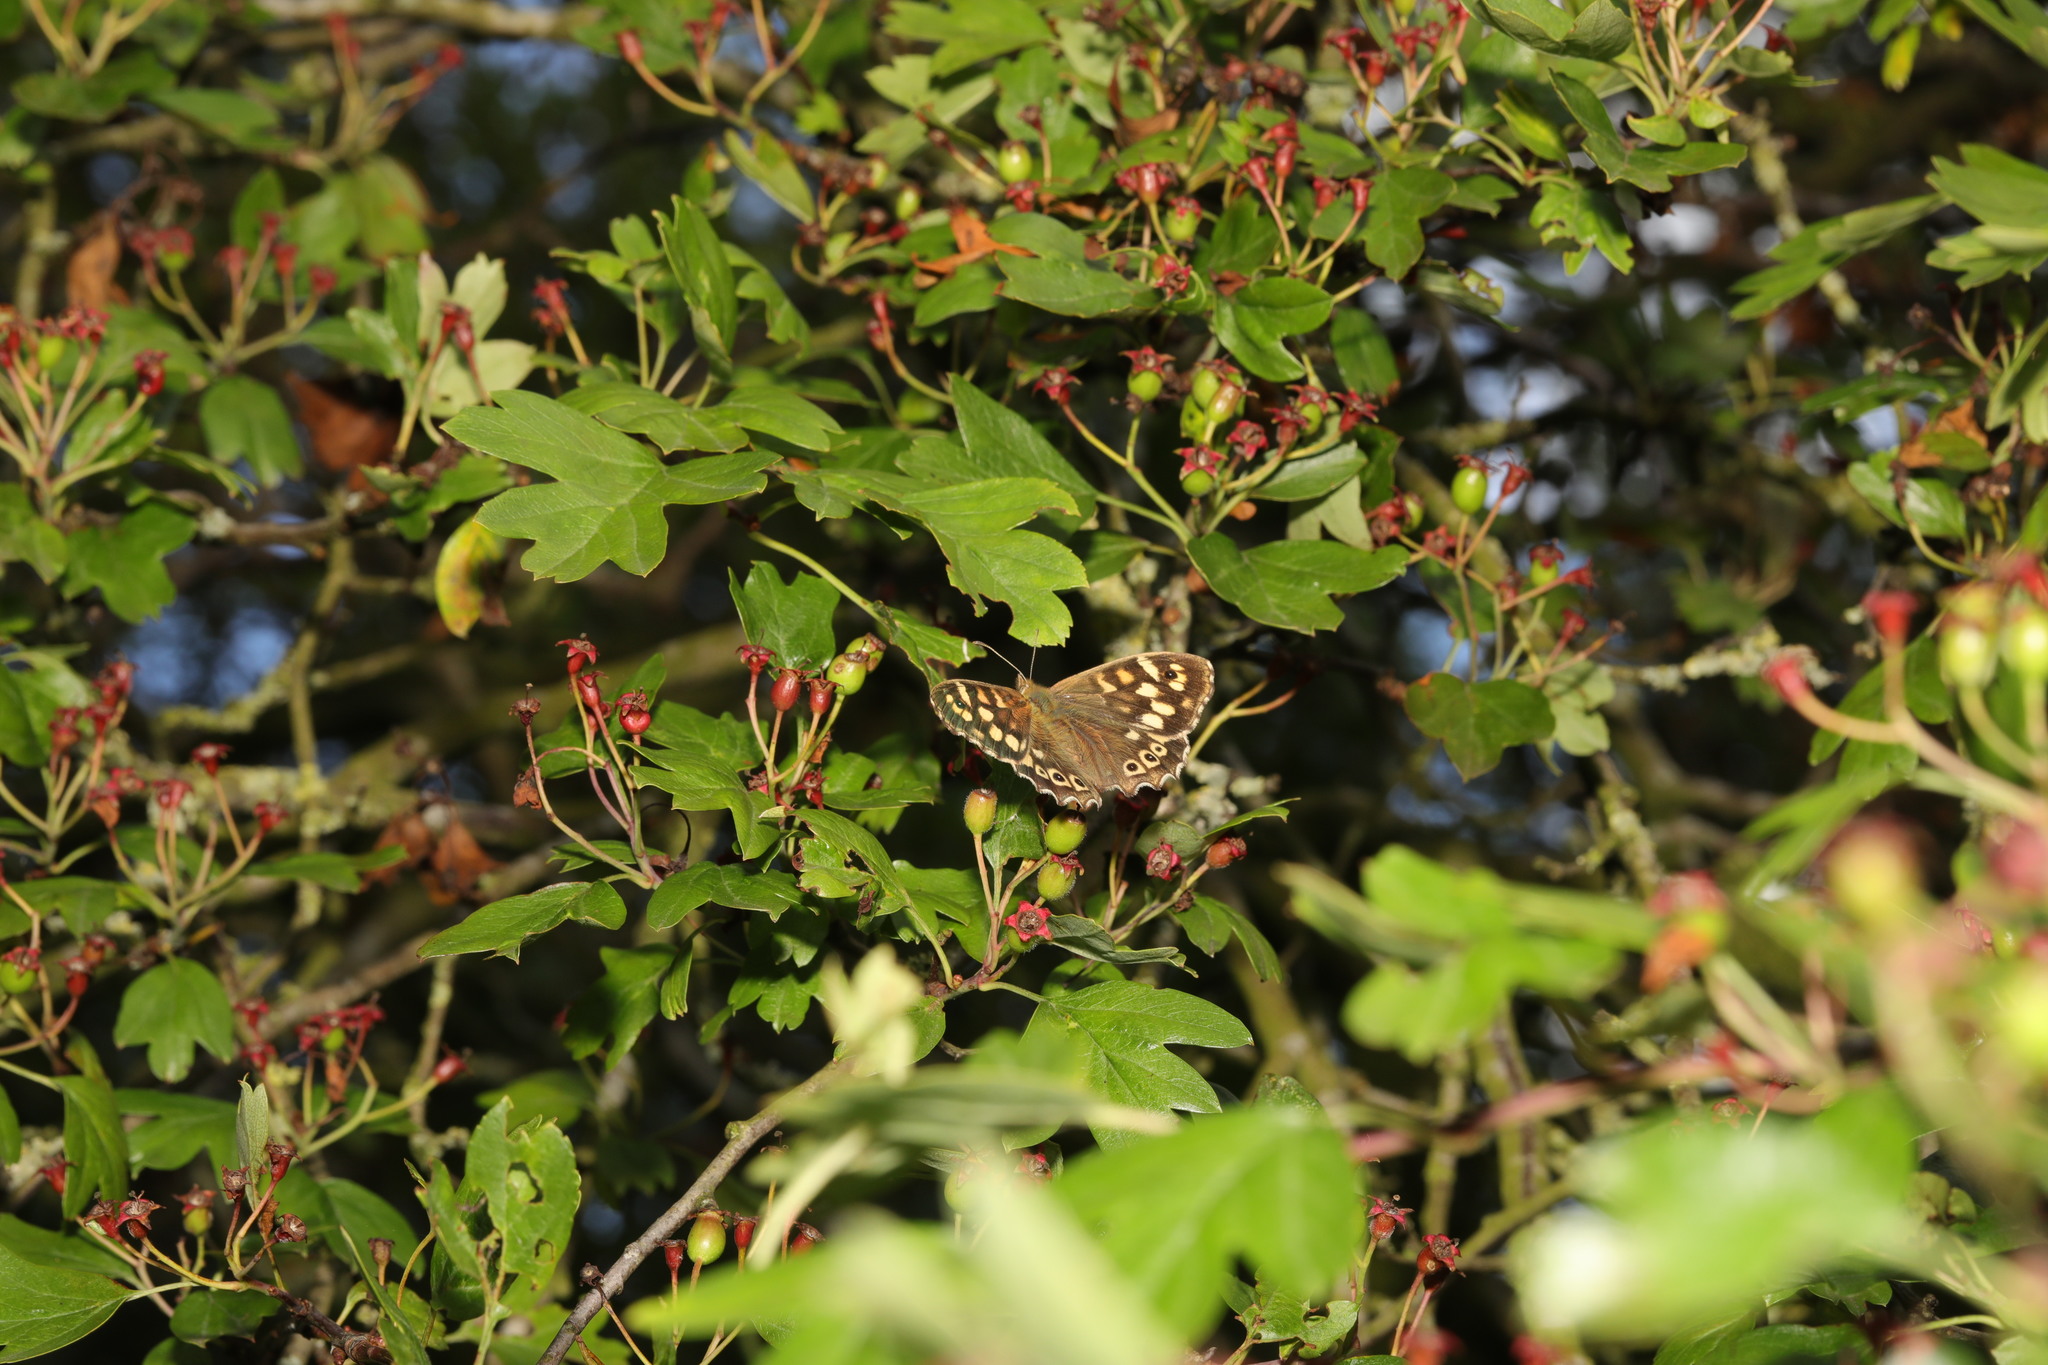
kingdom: Animalia
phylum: Arthropoda
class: Insecta
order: Lepidoptera
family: Nymphalidae
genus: Pararge
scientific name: Pararge aegeria
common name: Speckled wood
